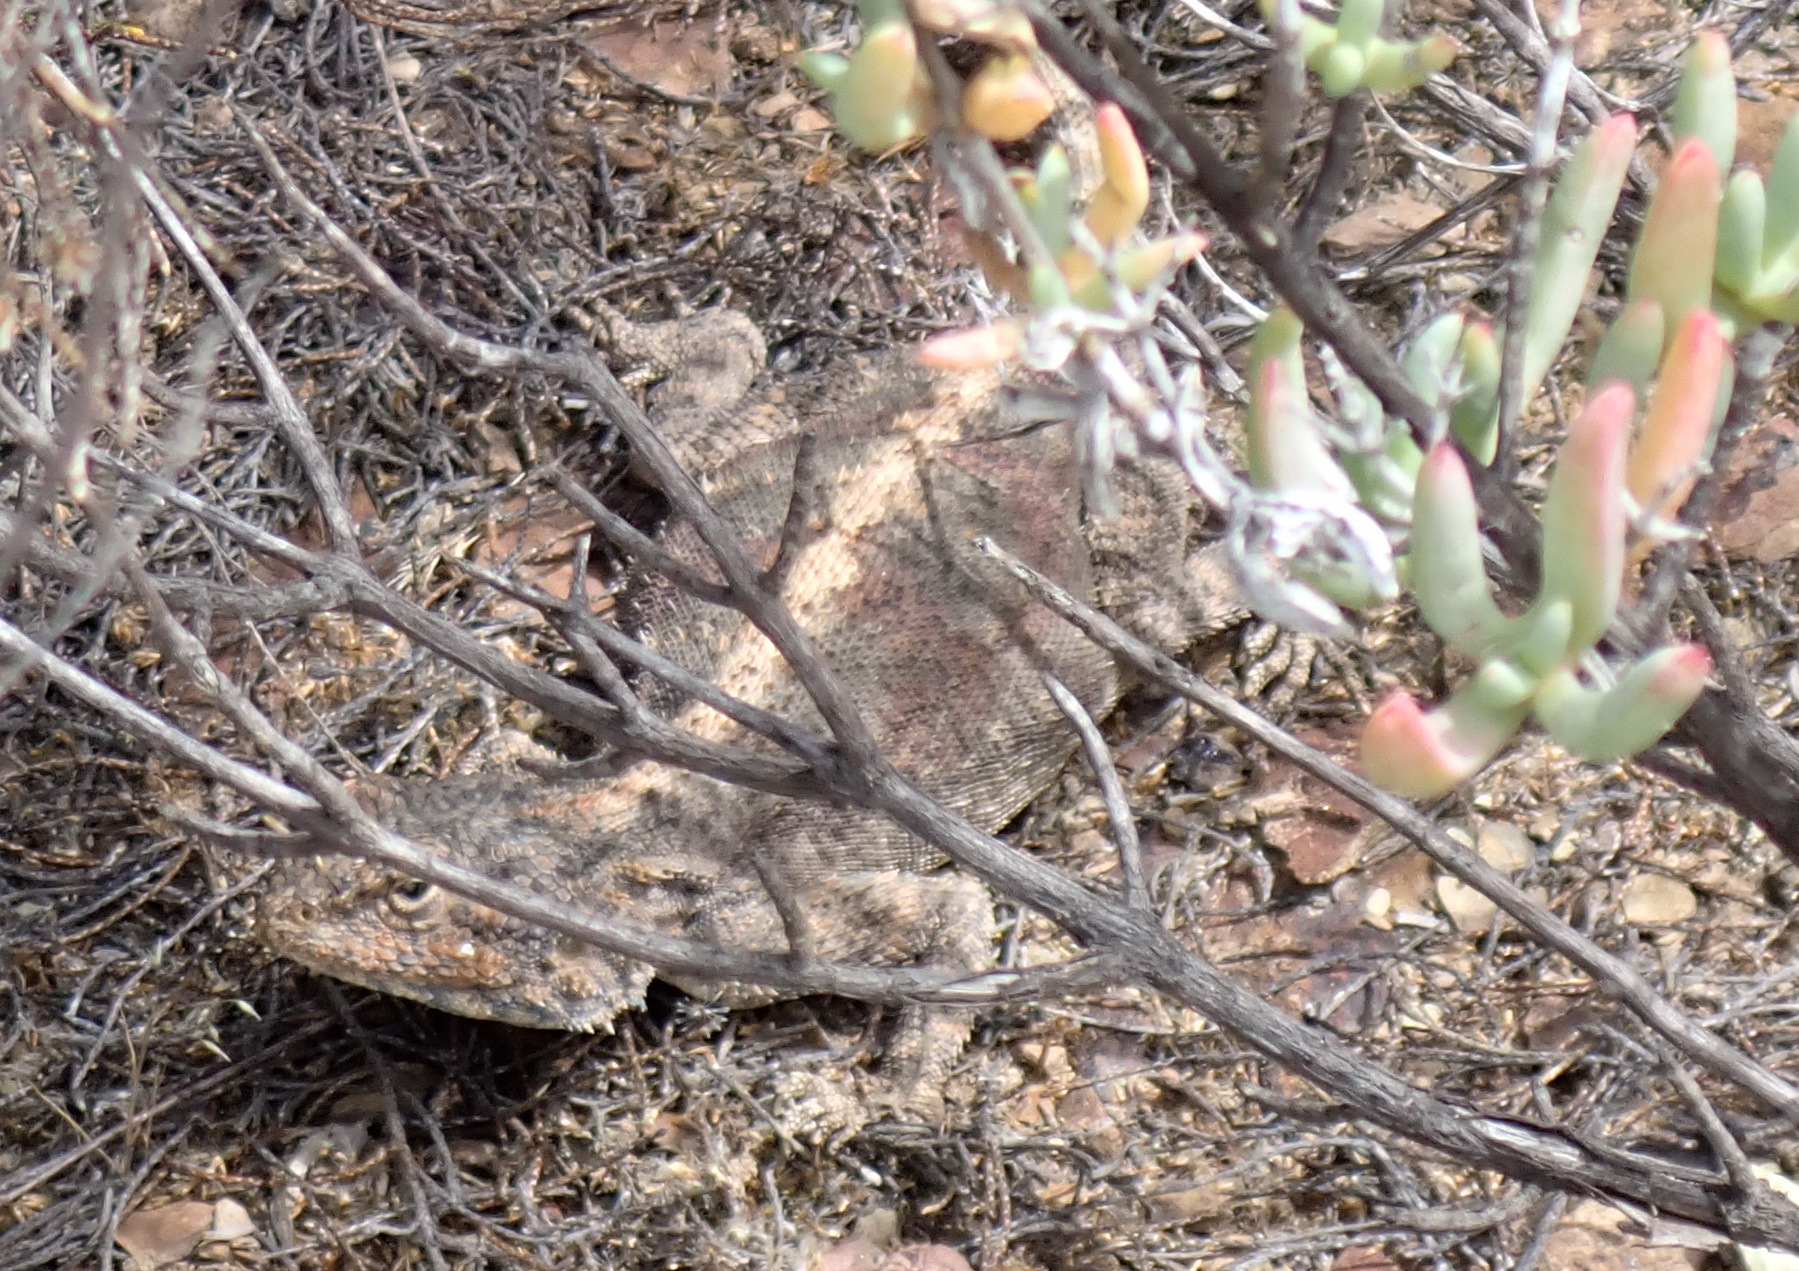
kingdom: Animalia
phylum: Chordata
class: Squamata
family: Agamidae
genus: Agama
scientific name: Agama atra
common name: Southern african rock agama
